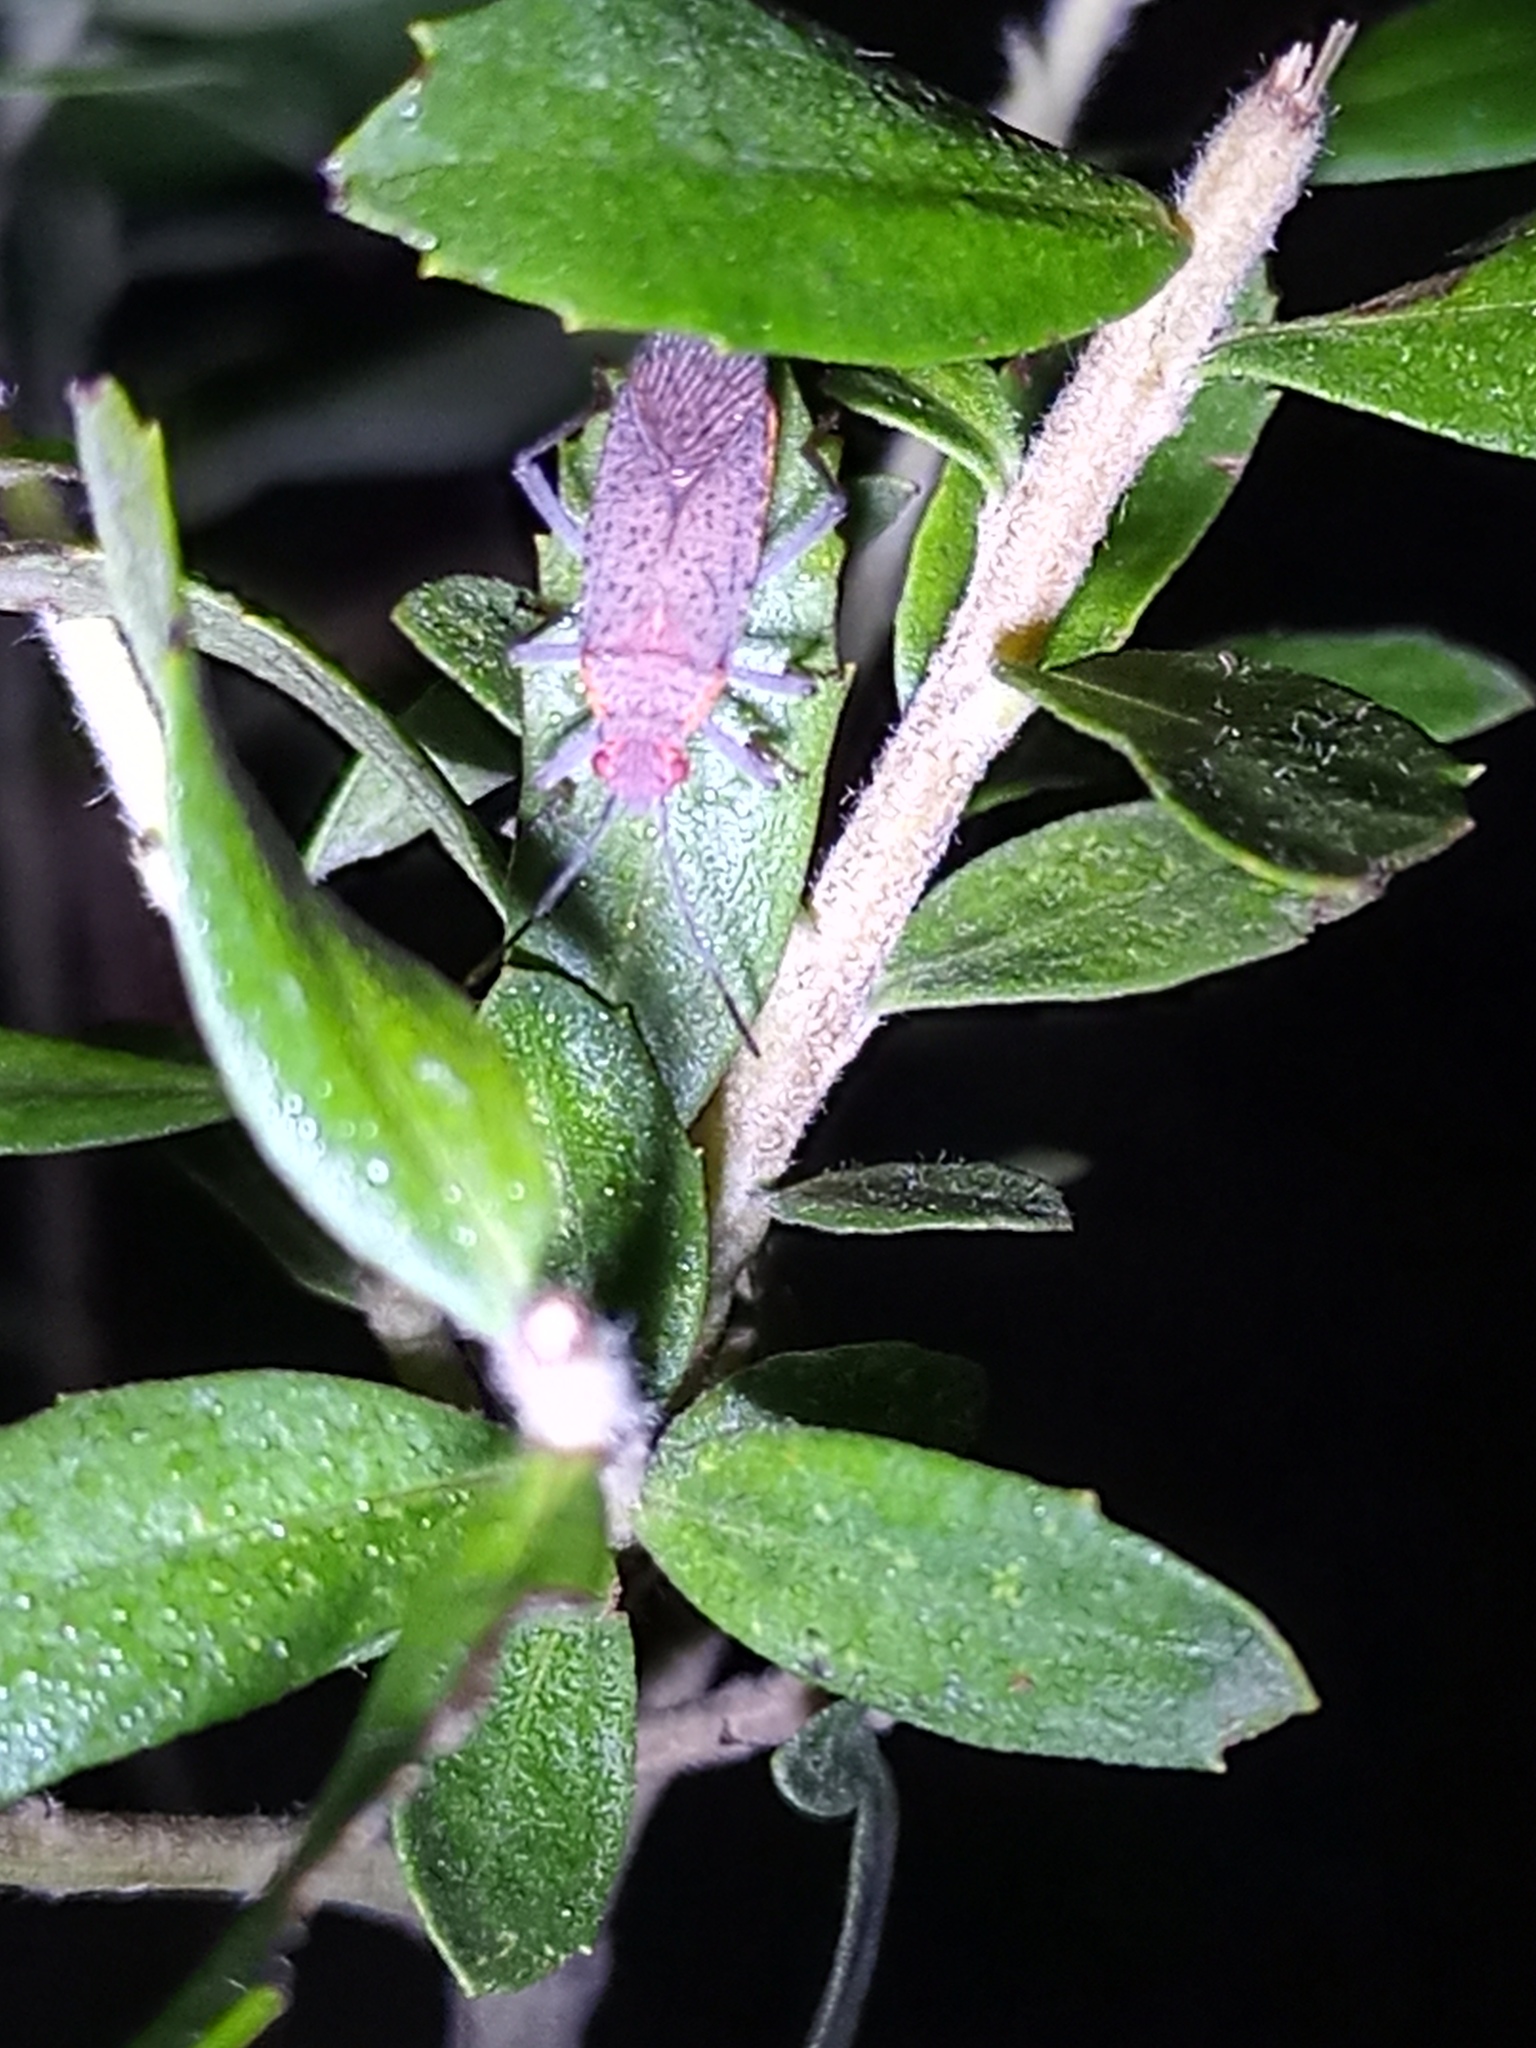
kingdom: Animalia
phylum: Arthropoda
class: Insecta
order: Hemiptera
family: Rhopalidae
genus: Jadera
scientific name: Jadera coturnix
